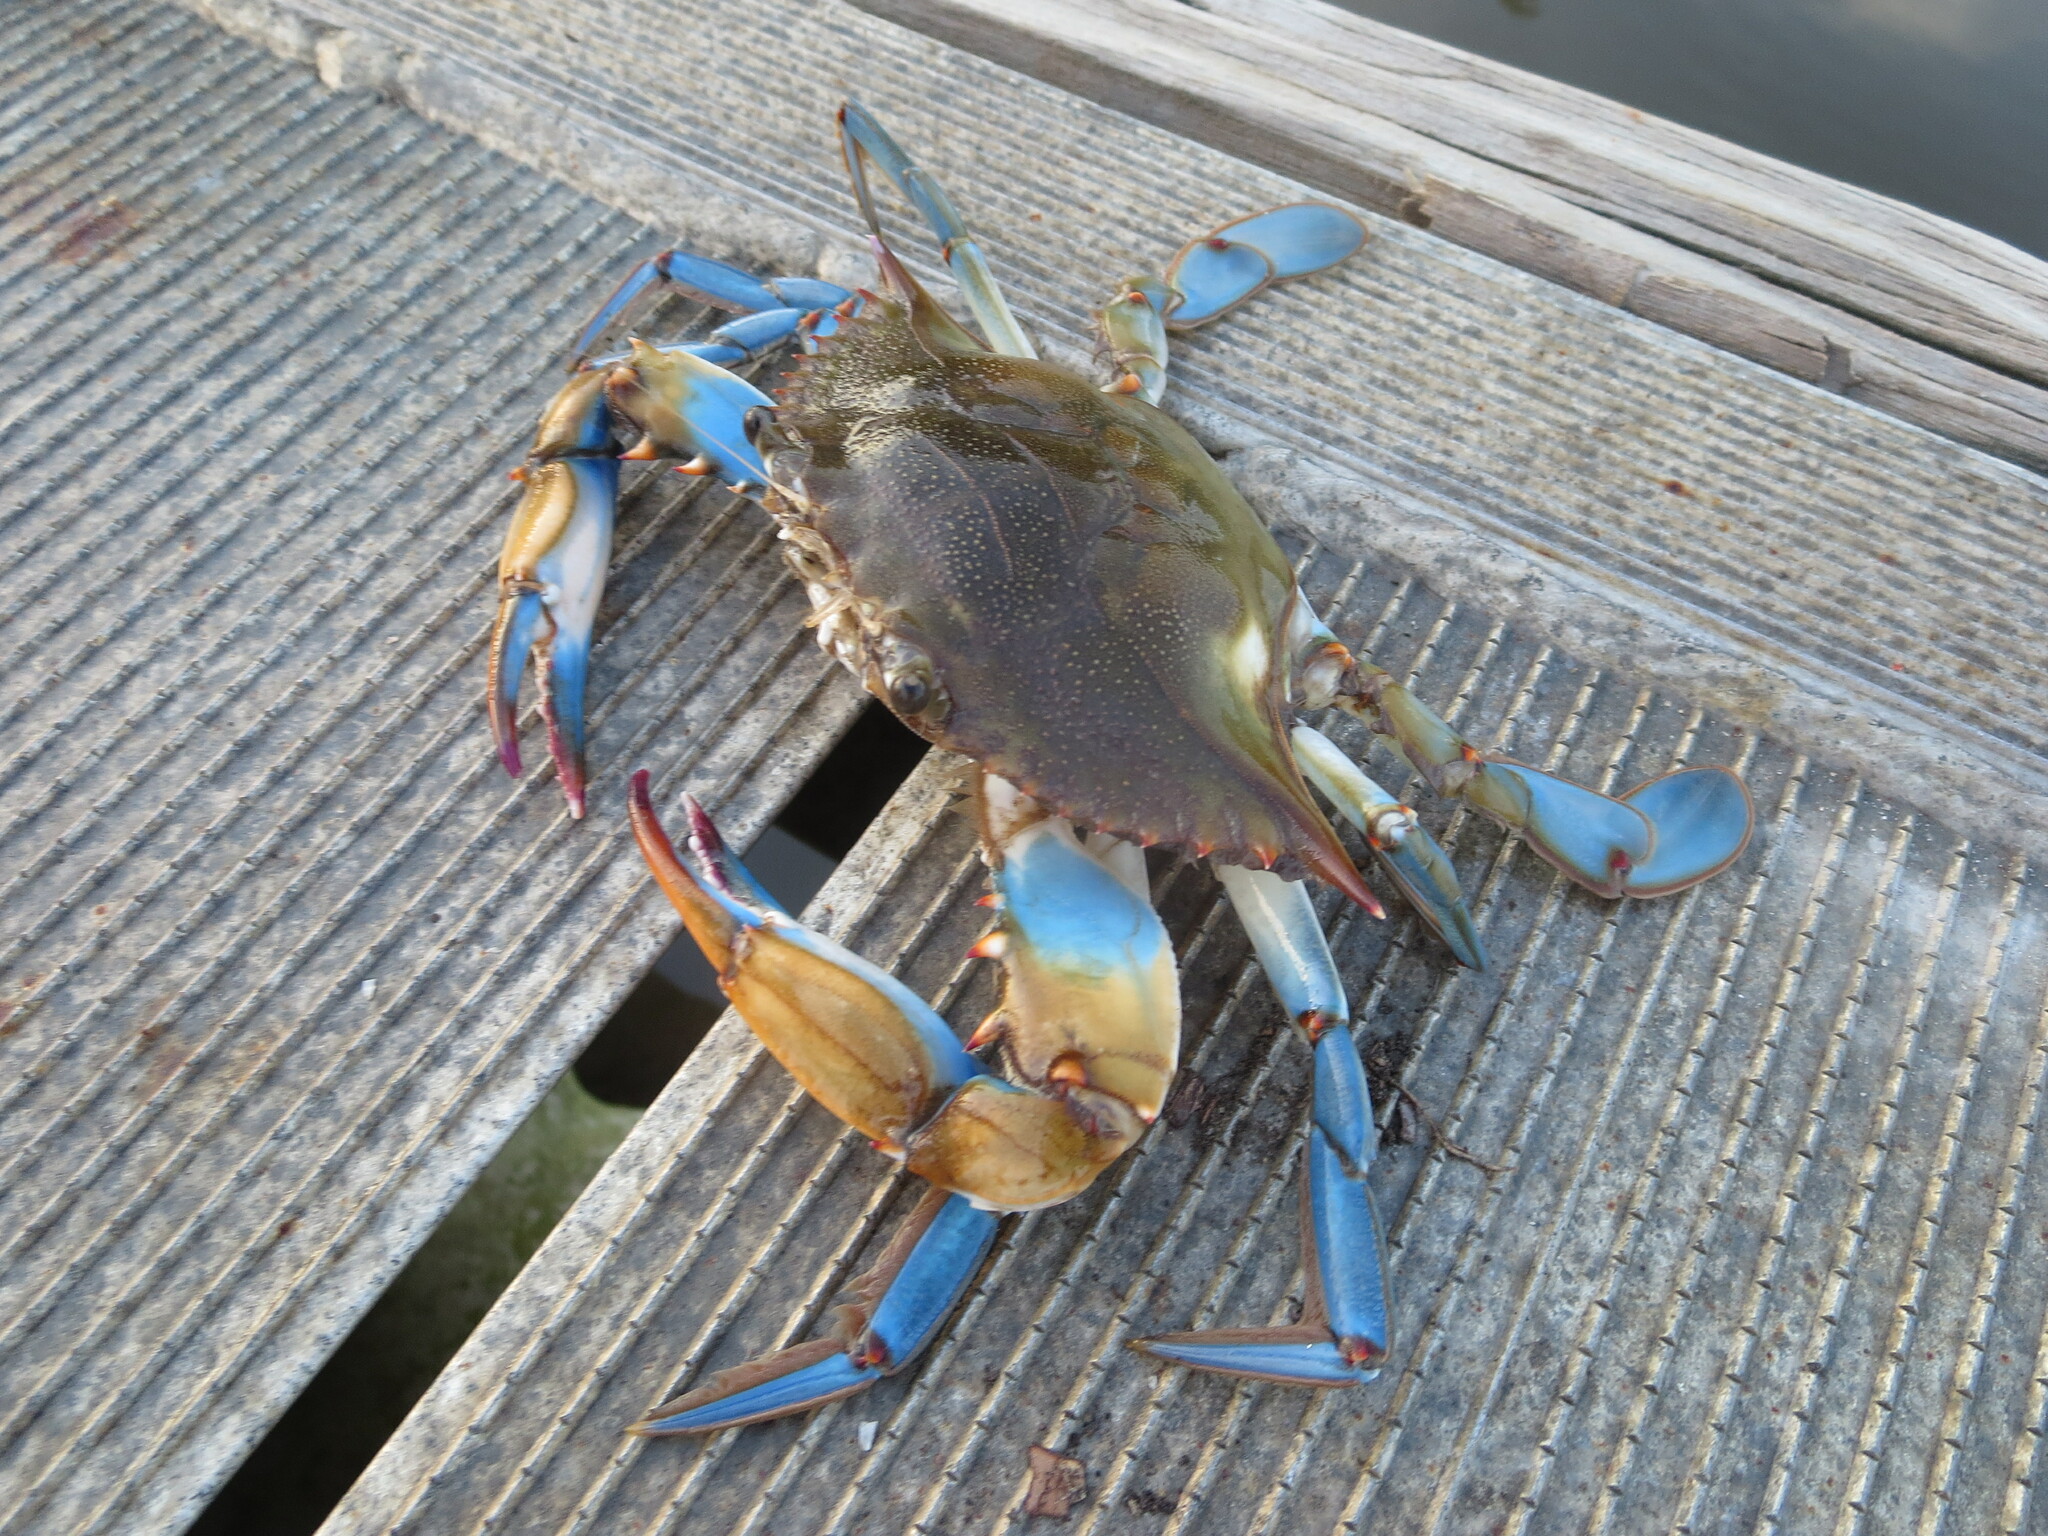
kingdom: Animalia
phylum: Arthropoda
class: Malacostraca
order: Decapoda
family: Portunidae
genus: Callinectes
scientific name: Callinectes sapidus
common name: Blue crab
